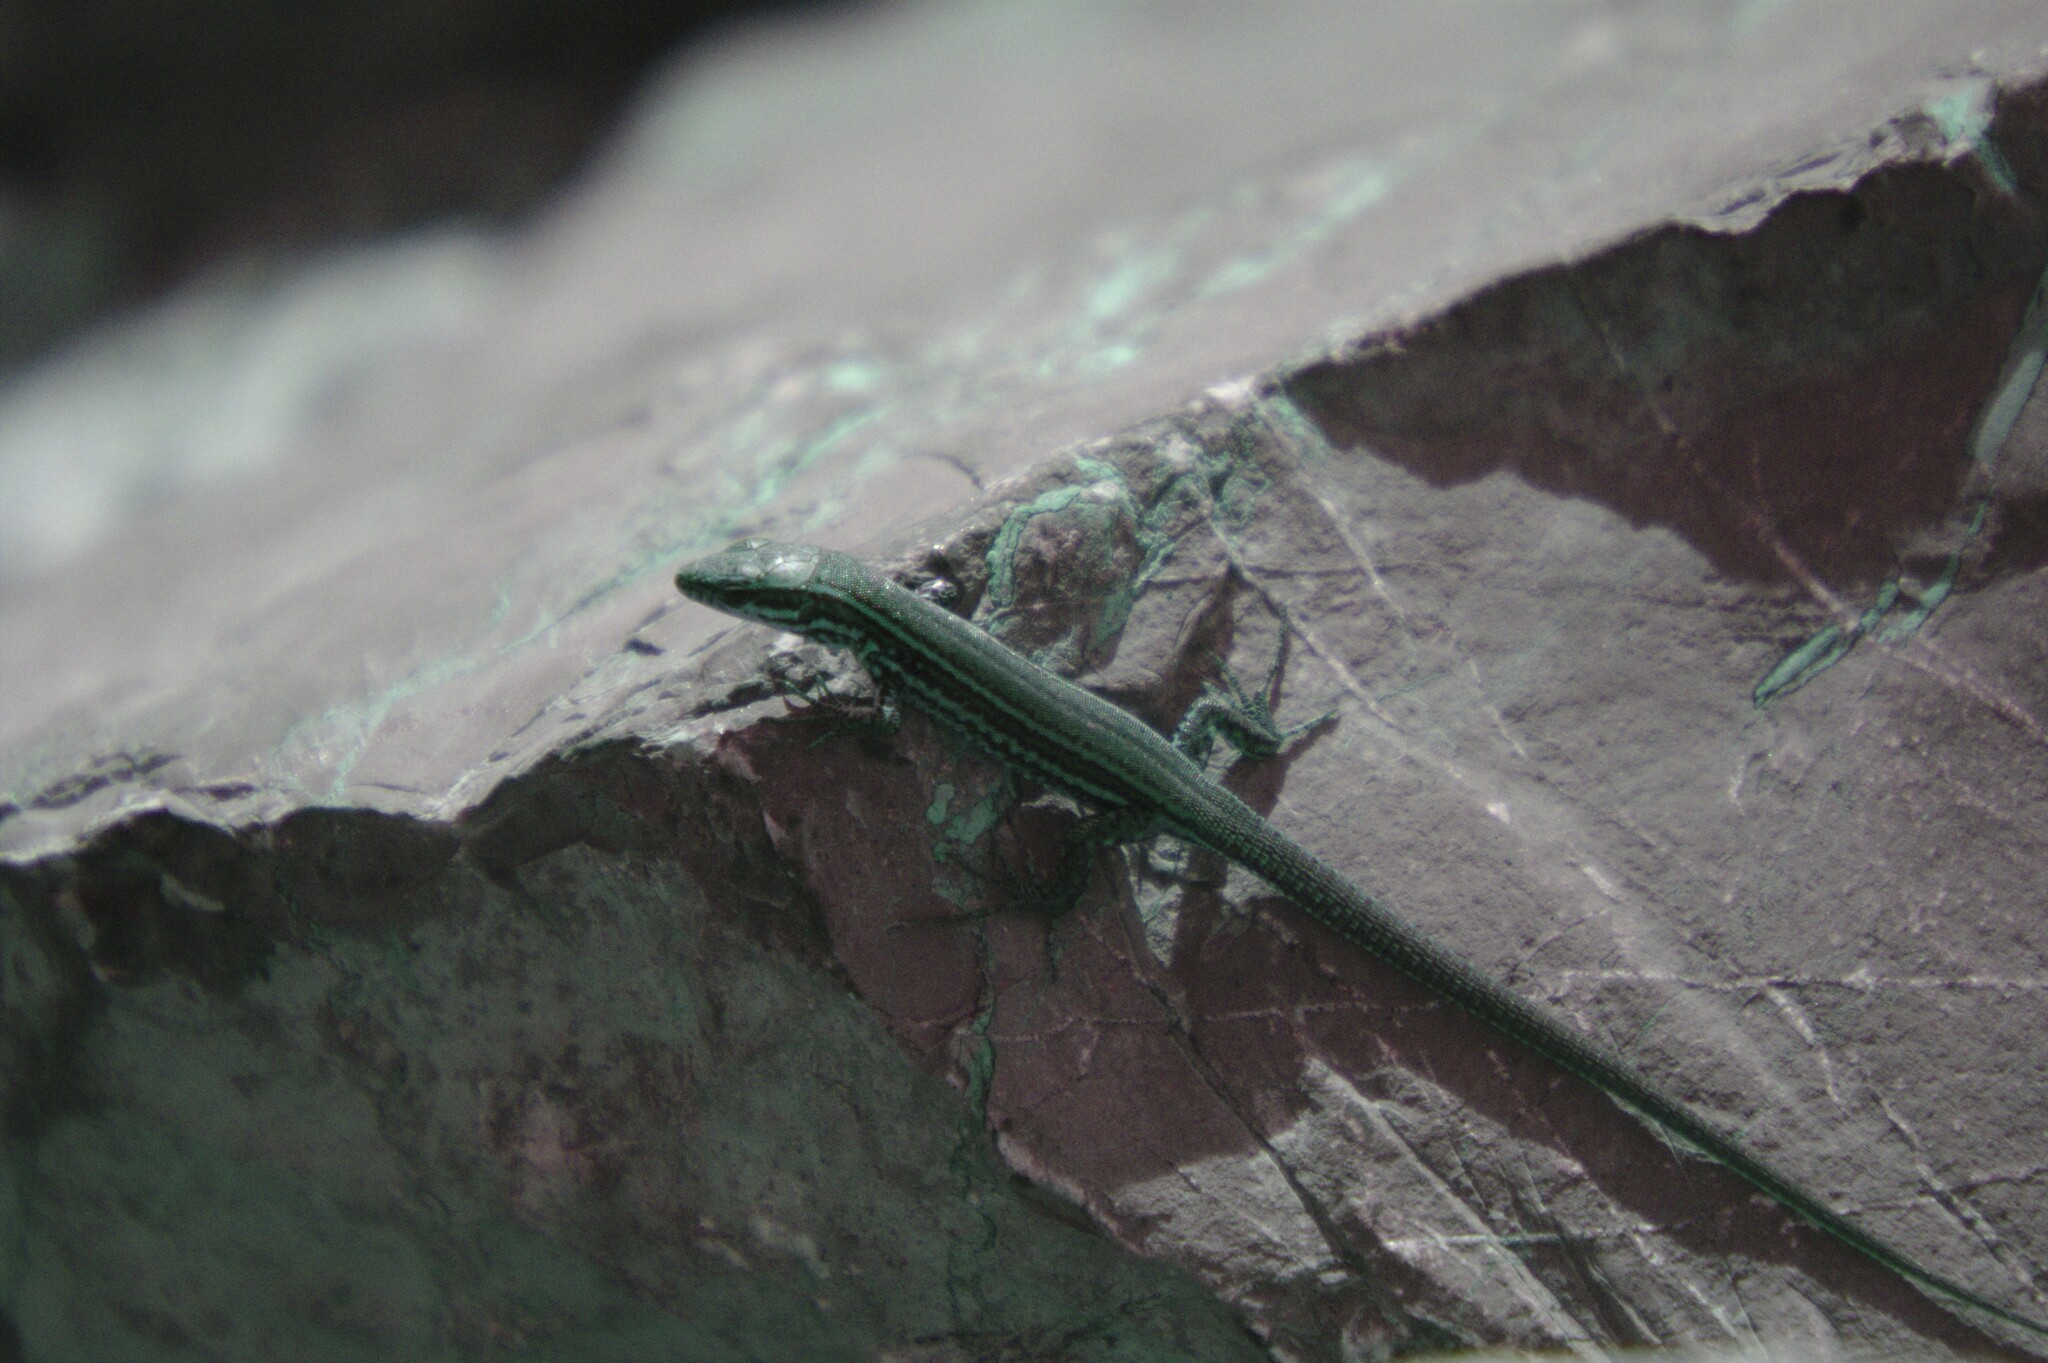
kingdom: Animalia
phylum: Chordata
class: Squamata
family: Lacertidae
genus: Podarcis
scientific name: Podarcis muralis
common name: Common wall lizard
